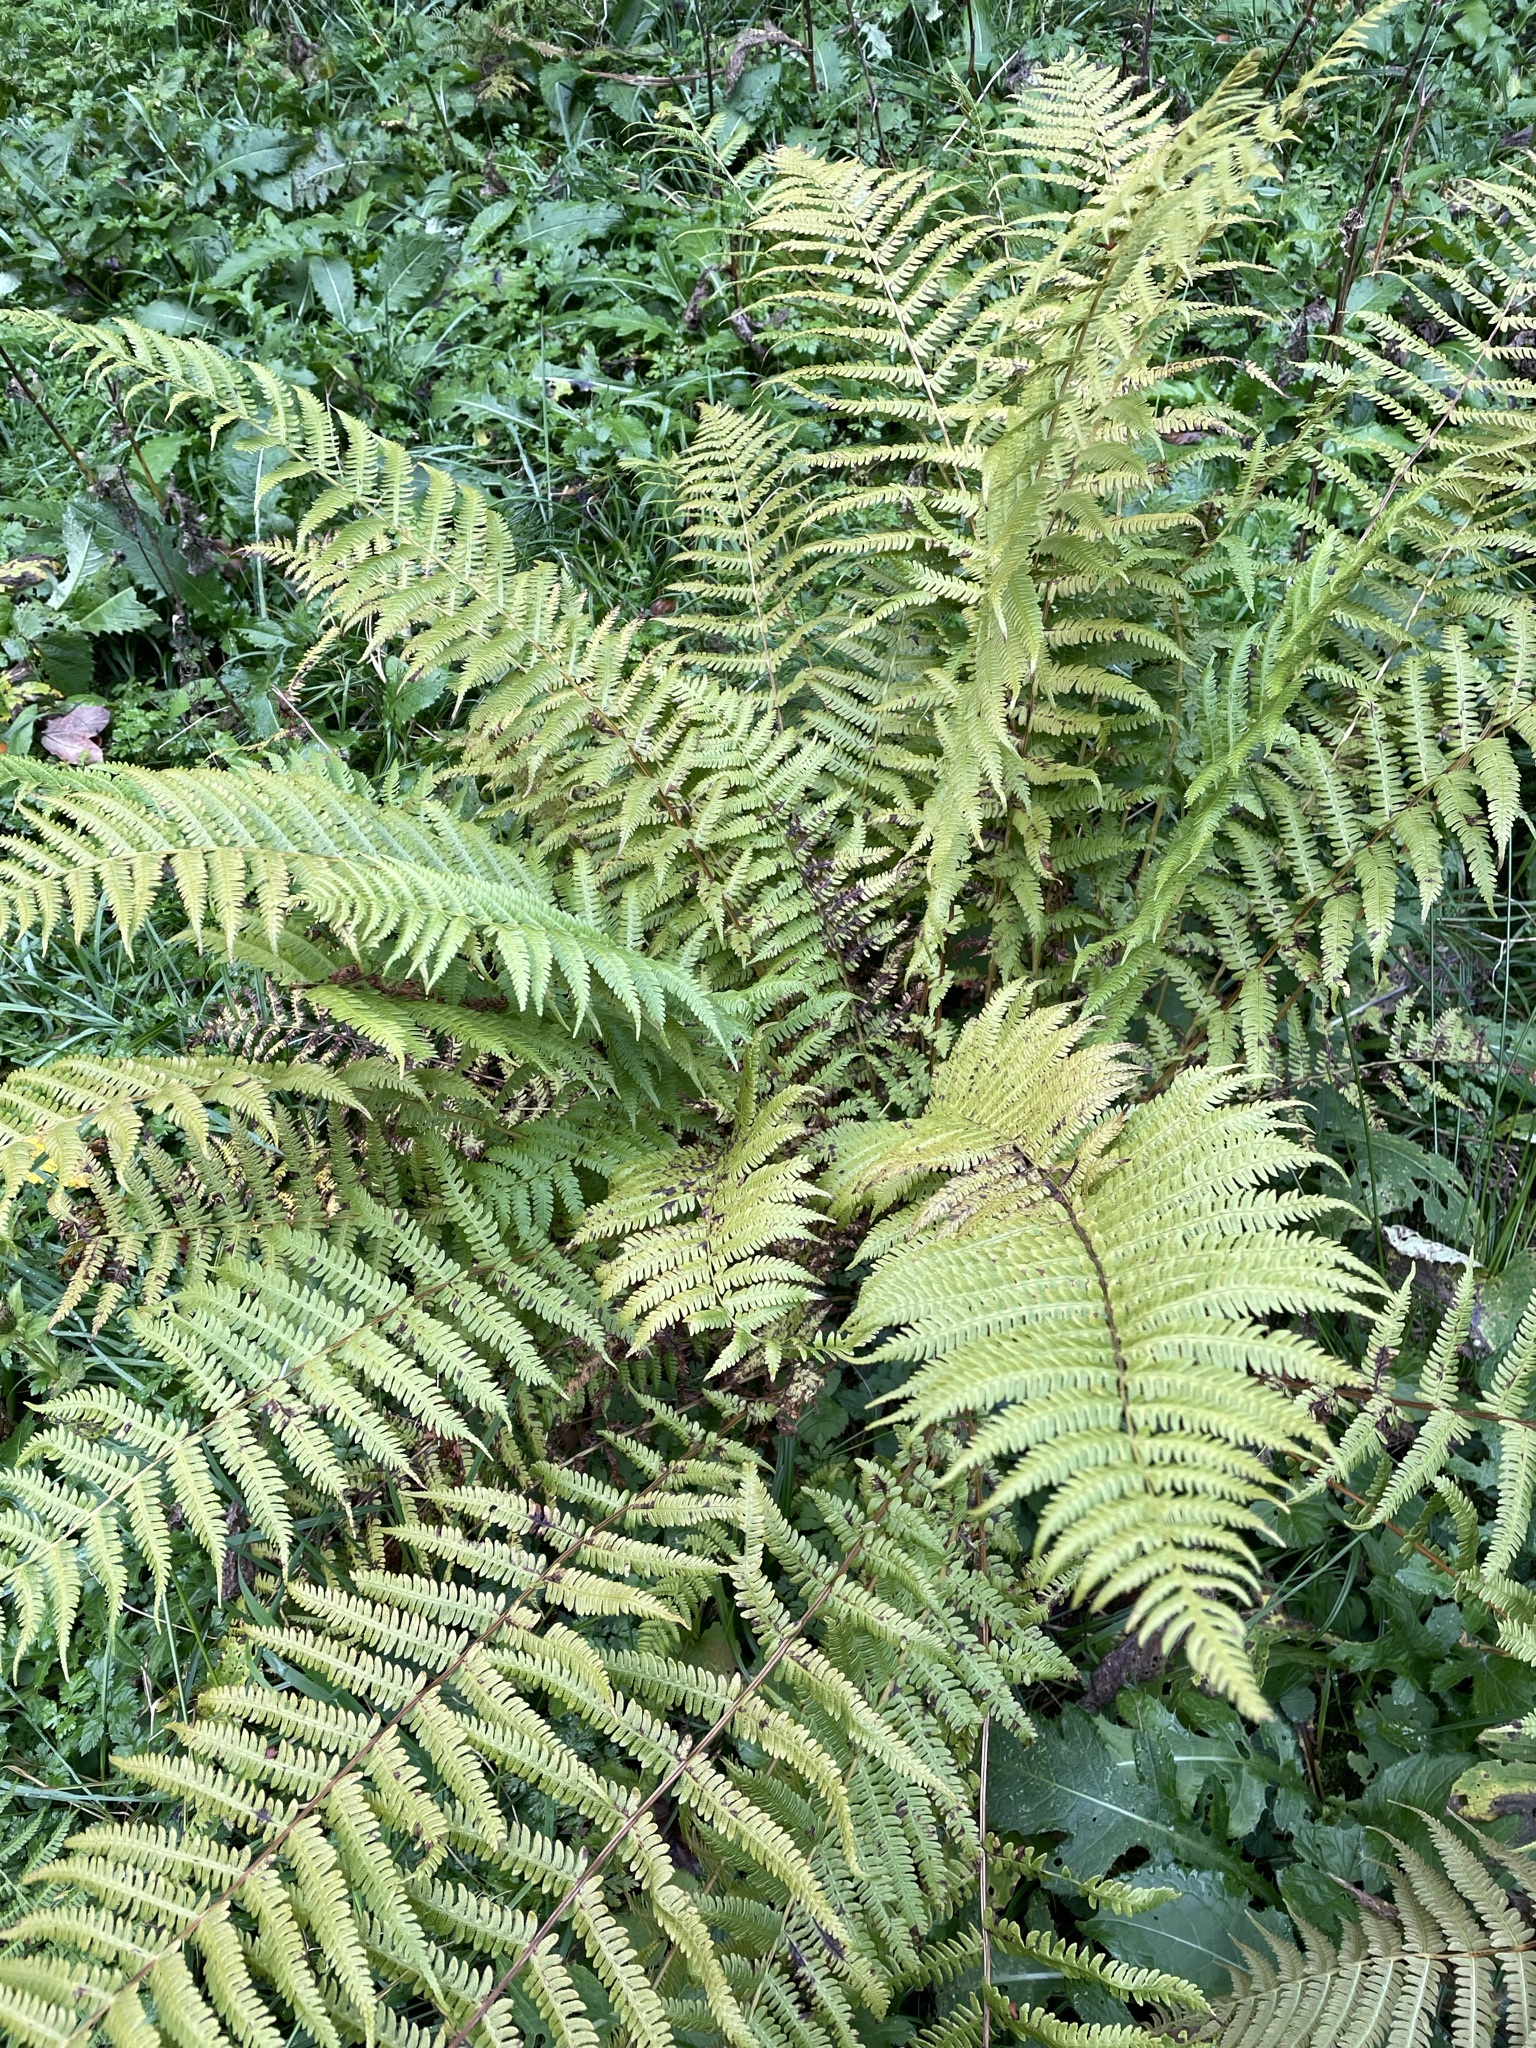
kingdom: Plantae
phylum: Tracheophyta
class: Polypodiopsida
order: Polypodiales
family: Thelypteridaceae
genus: Oreopteris
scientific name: Oreopteris limbosperma
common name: Lemon-scented fern
